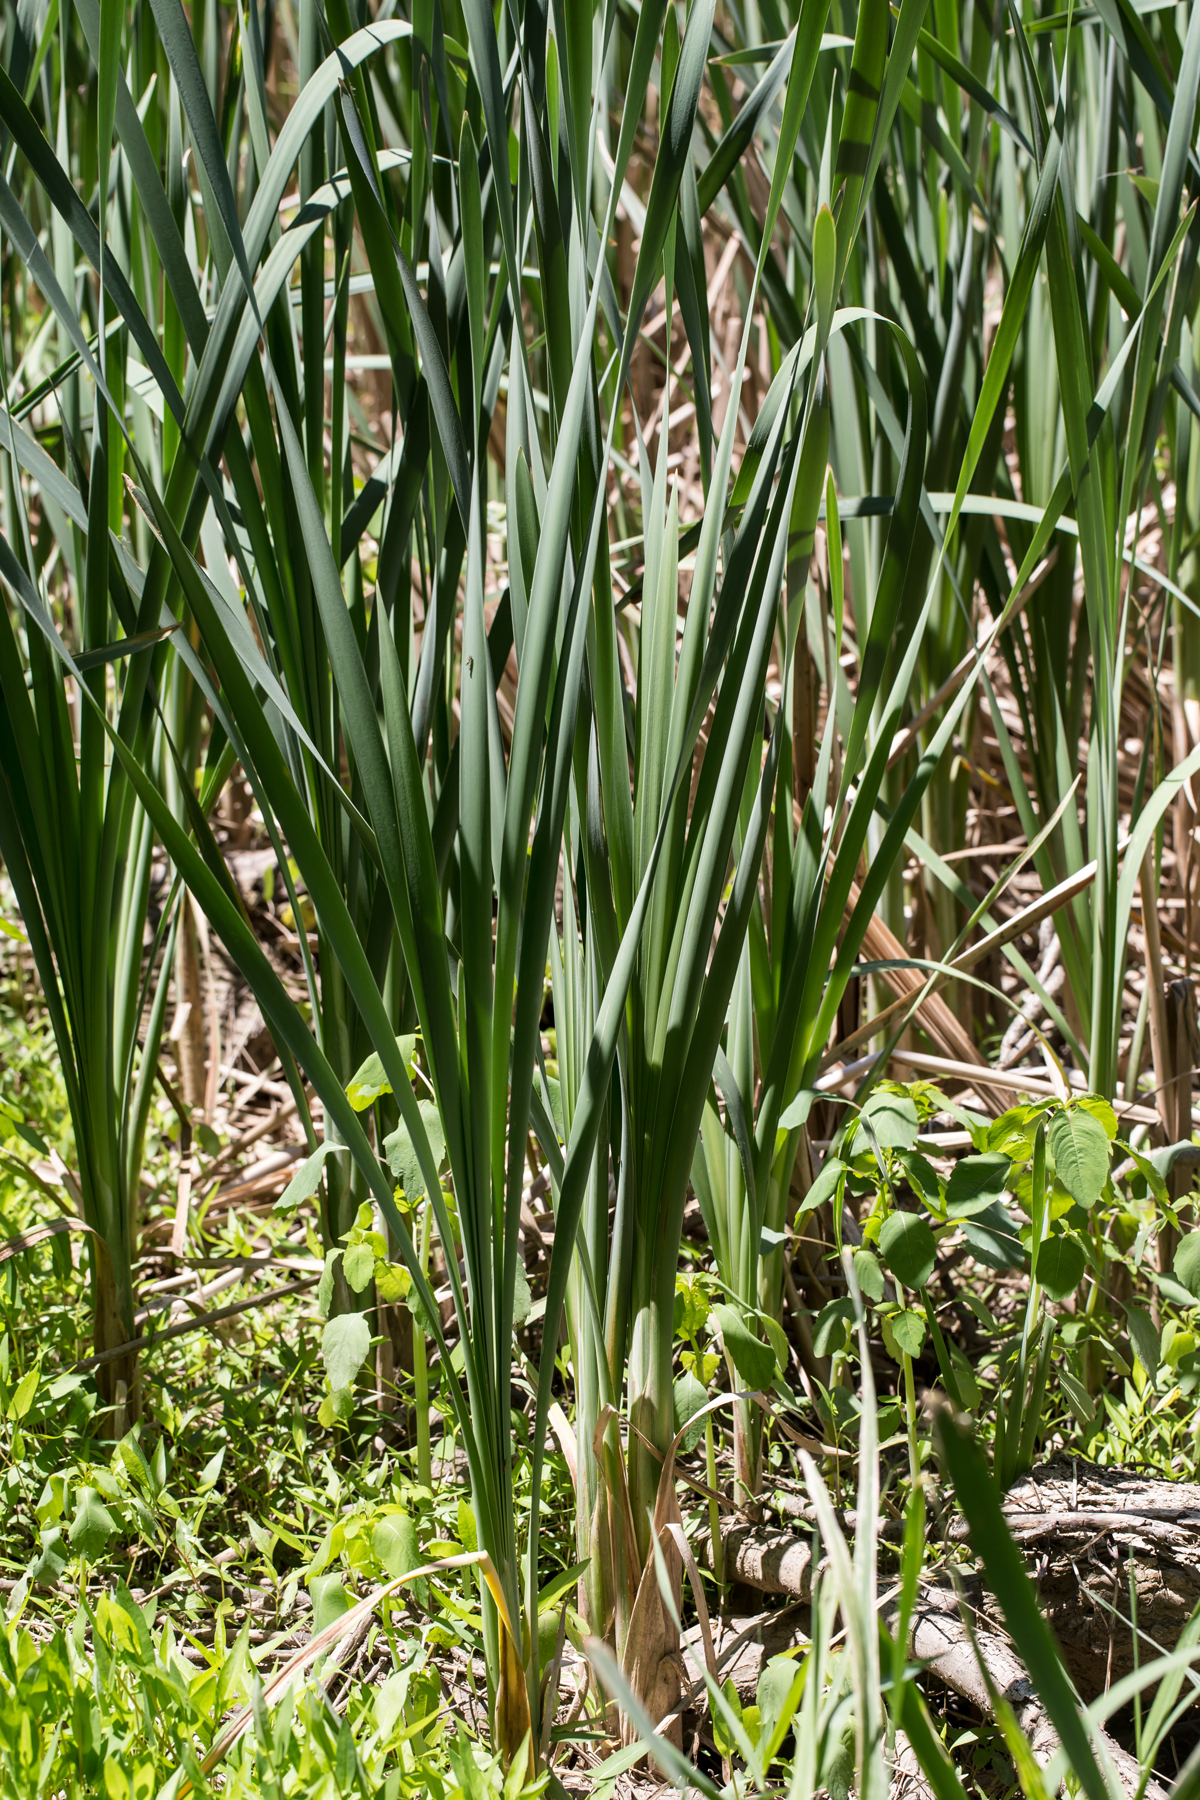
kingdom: Plantae
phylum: Tracheophyta
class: Liliopsida
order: Poales
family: Typhaceae
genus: Typha
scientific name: Typha latifolia
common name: Broadleaf cattail
